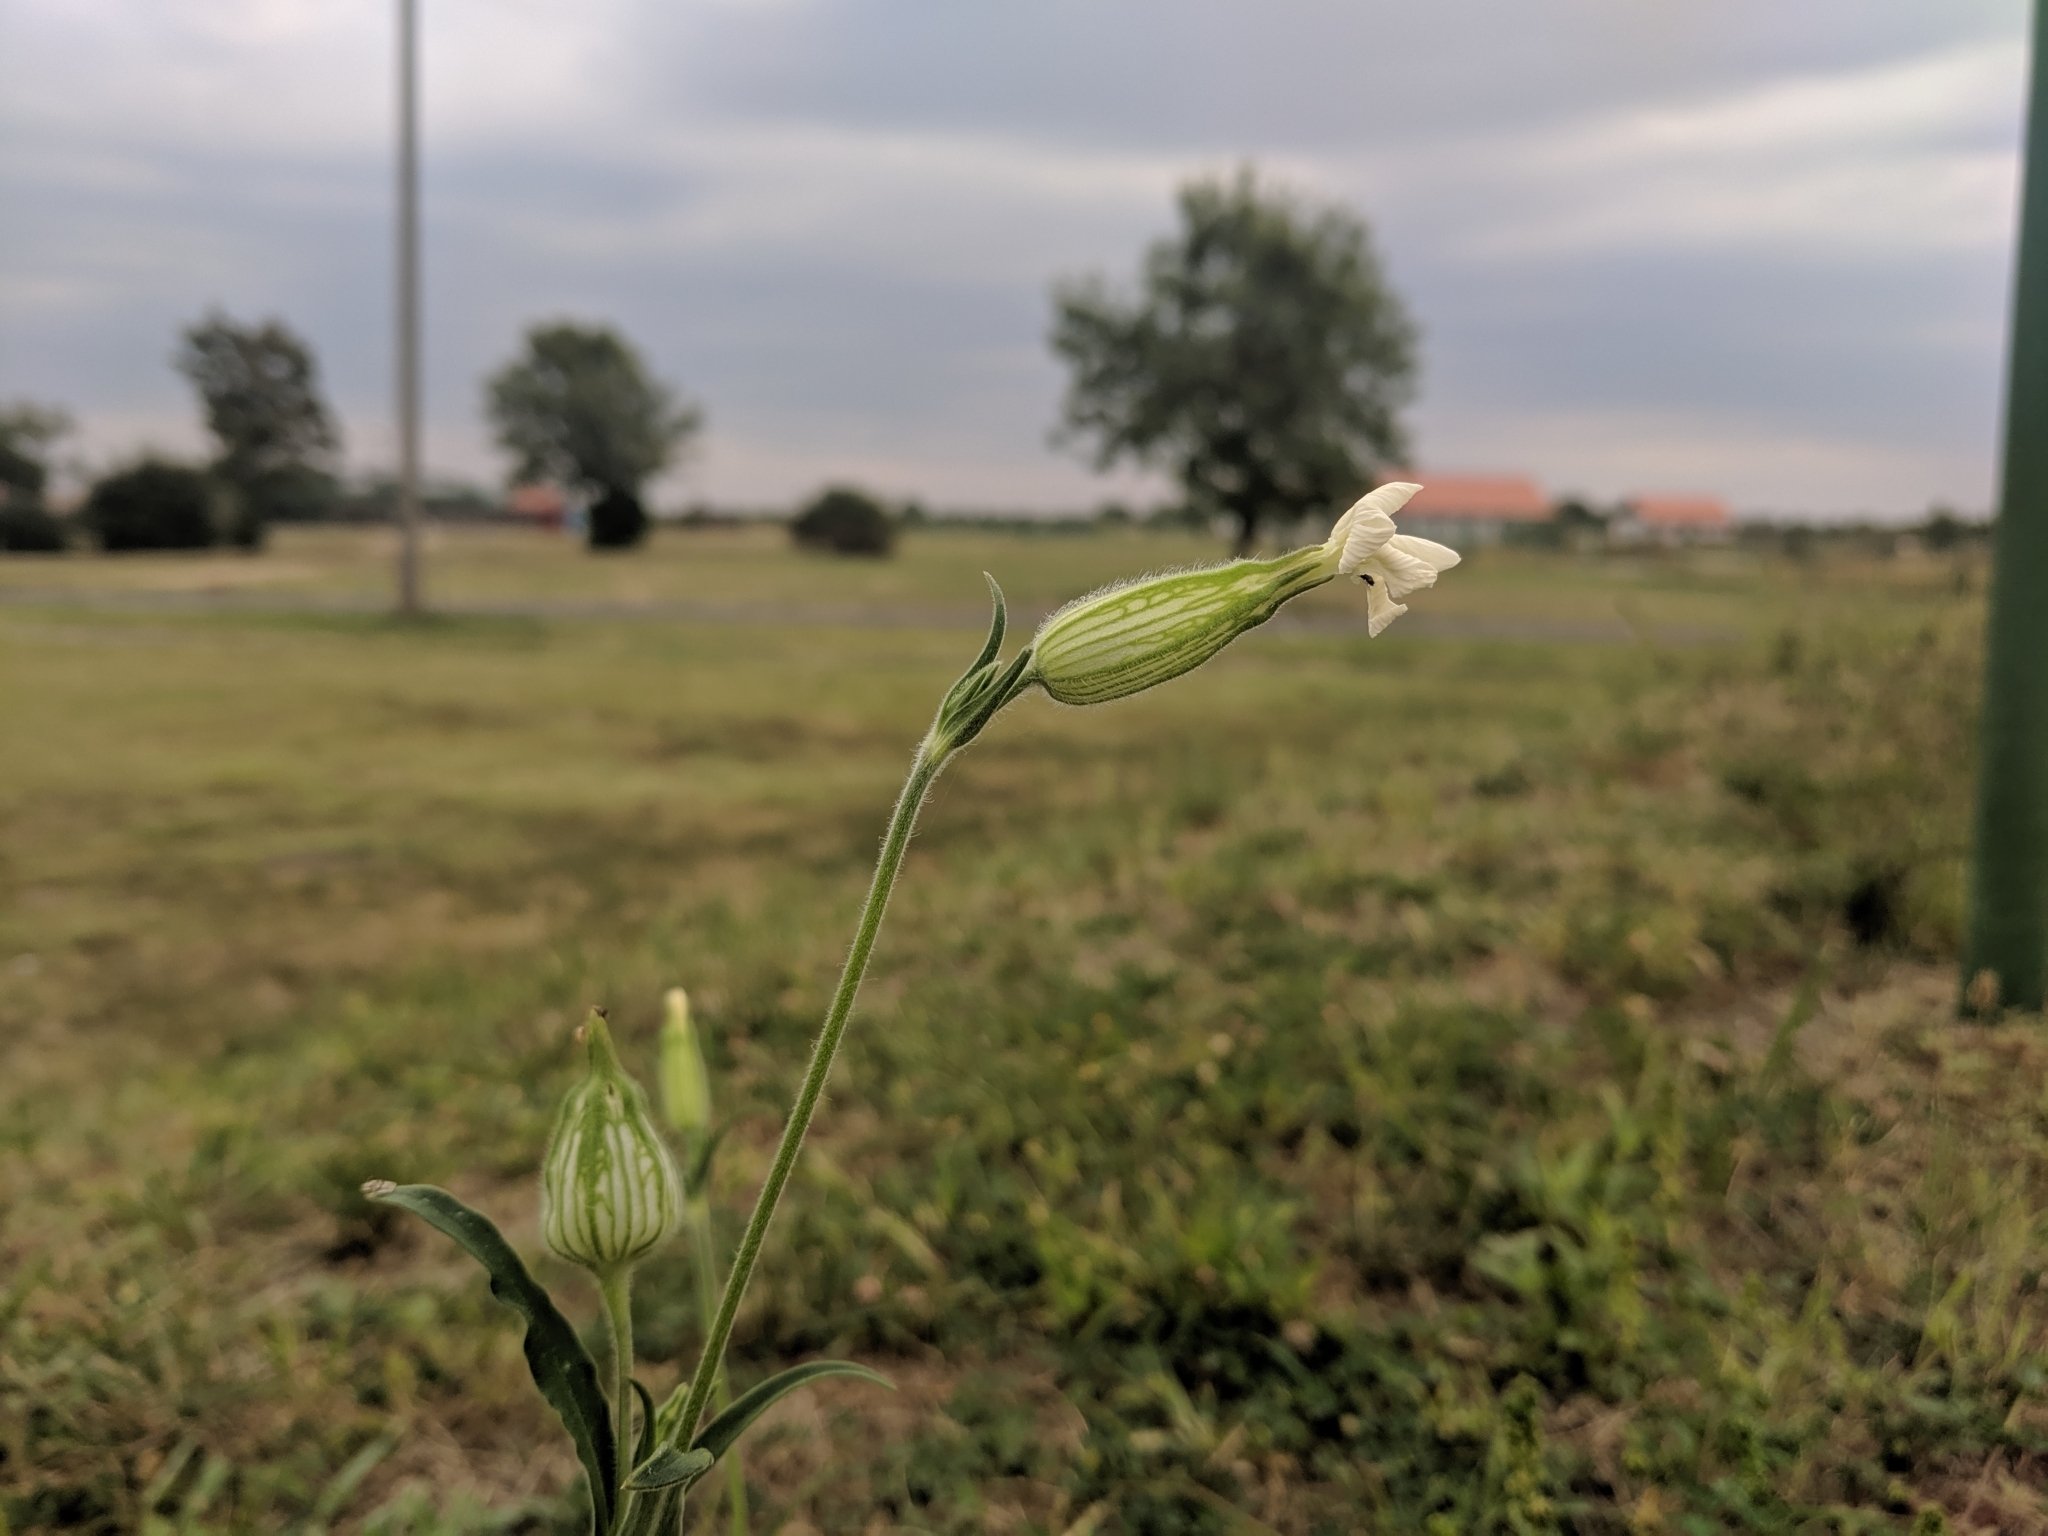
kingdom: Plantae
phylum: Tracheophyta
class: Magnoliopsida
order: Caryophyllales
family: Caryophyllaceae
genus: Silene
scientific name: Silene latifolia
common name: White campion
